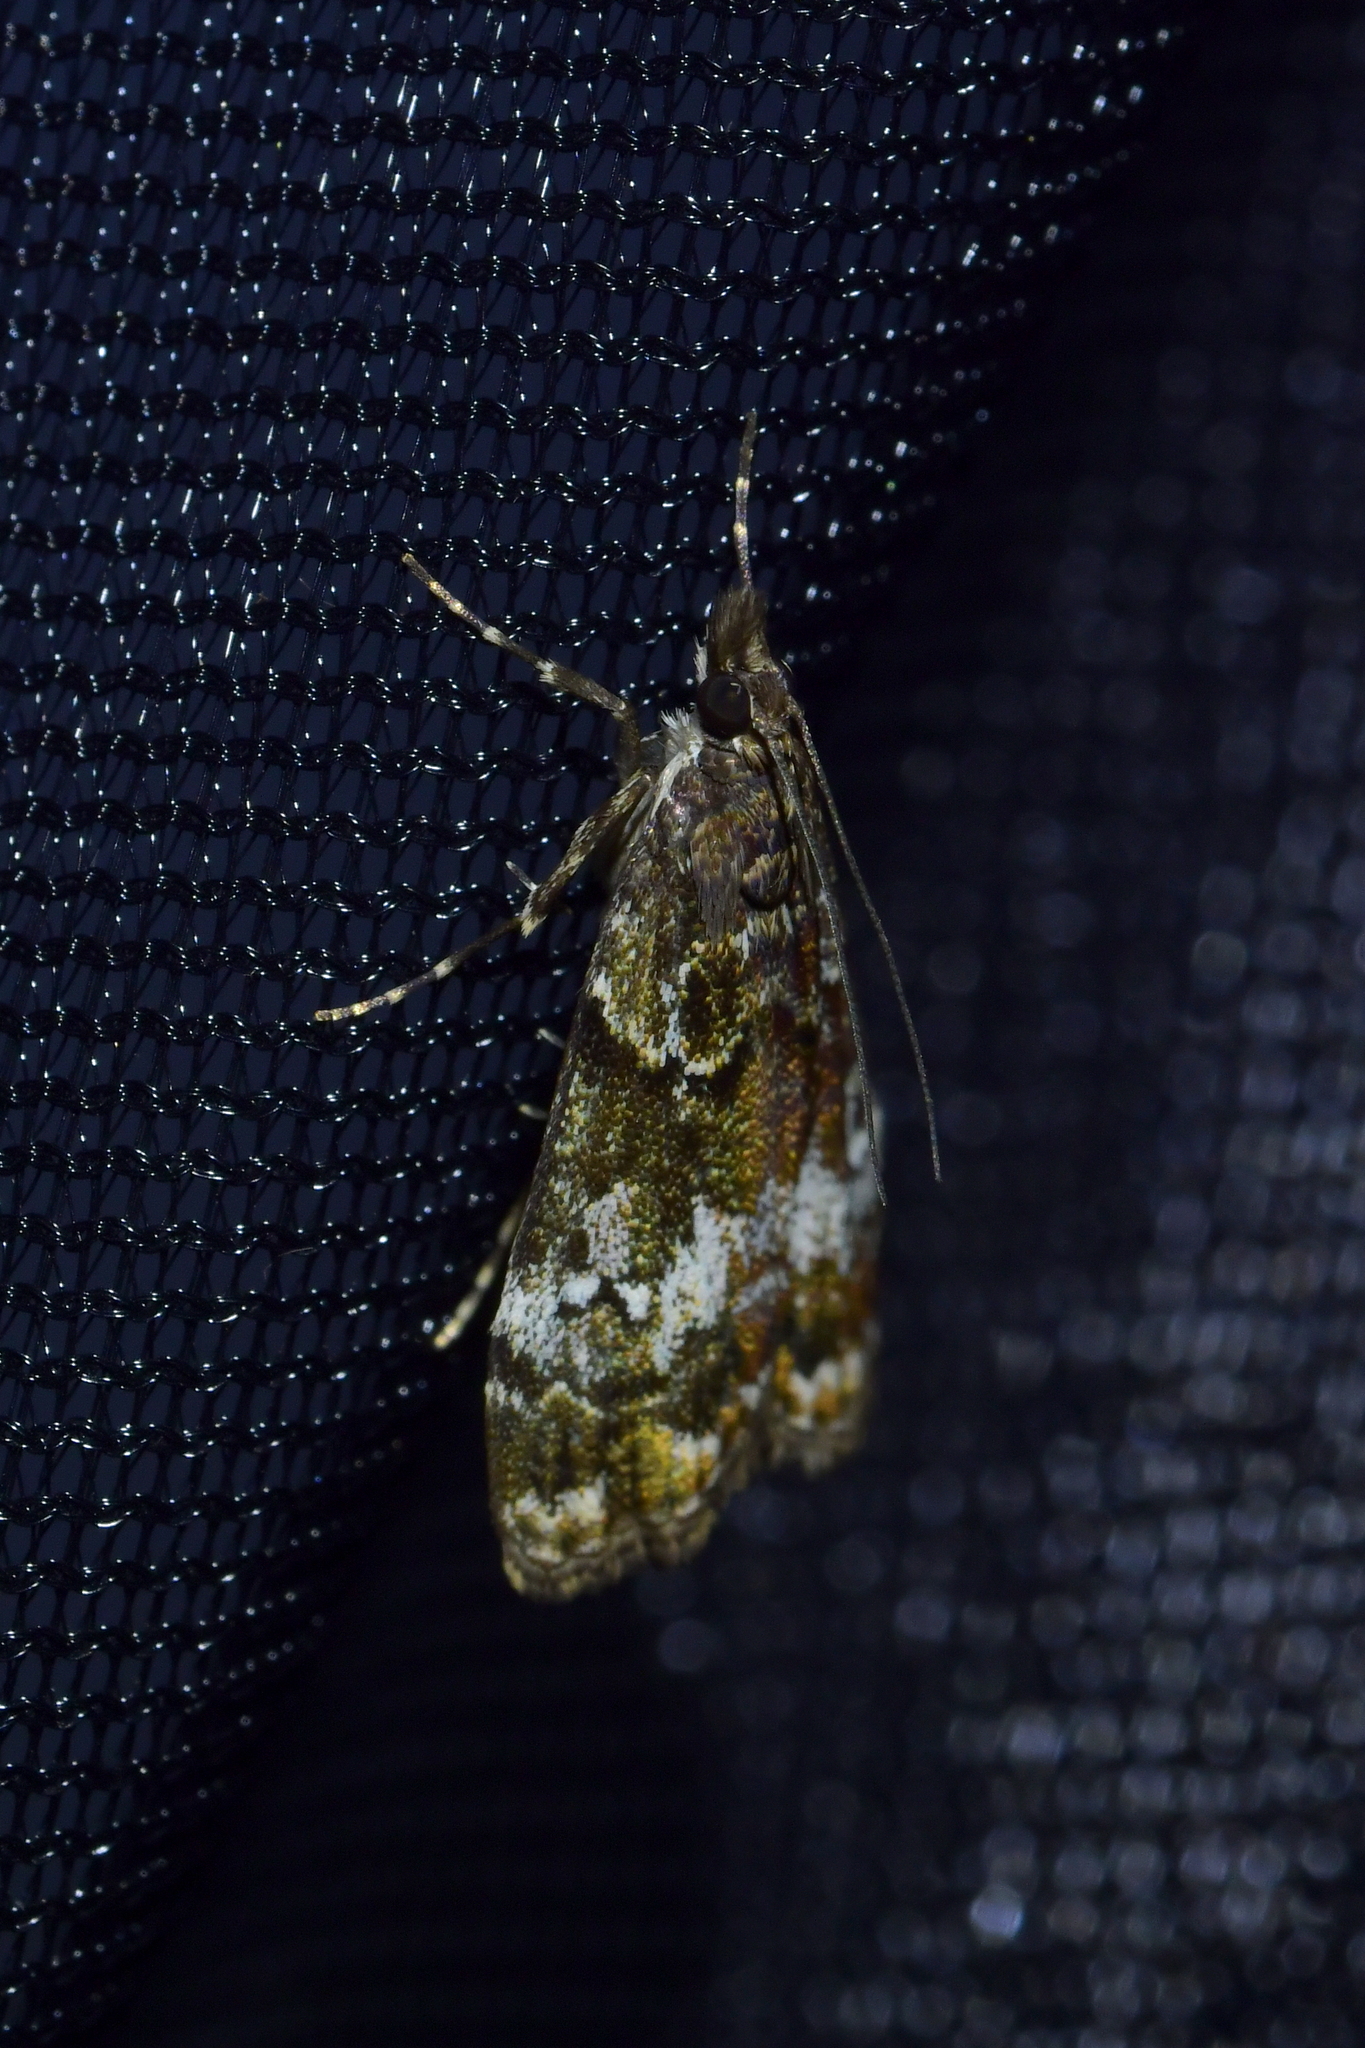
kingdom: Animalia
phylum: Arthropoda
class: Insecta
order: Lepidoptera
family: Crambidae
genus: Eudonia
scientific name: Eudonia minualis
